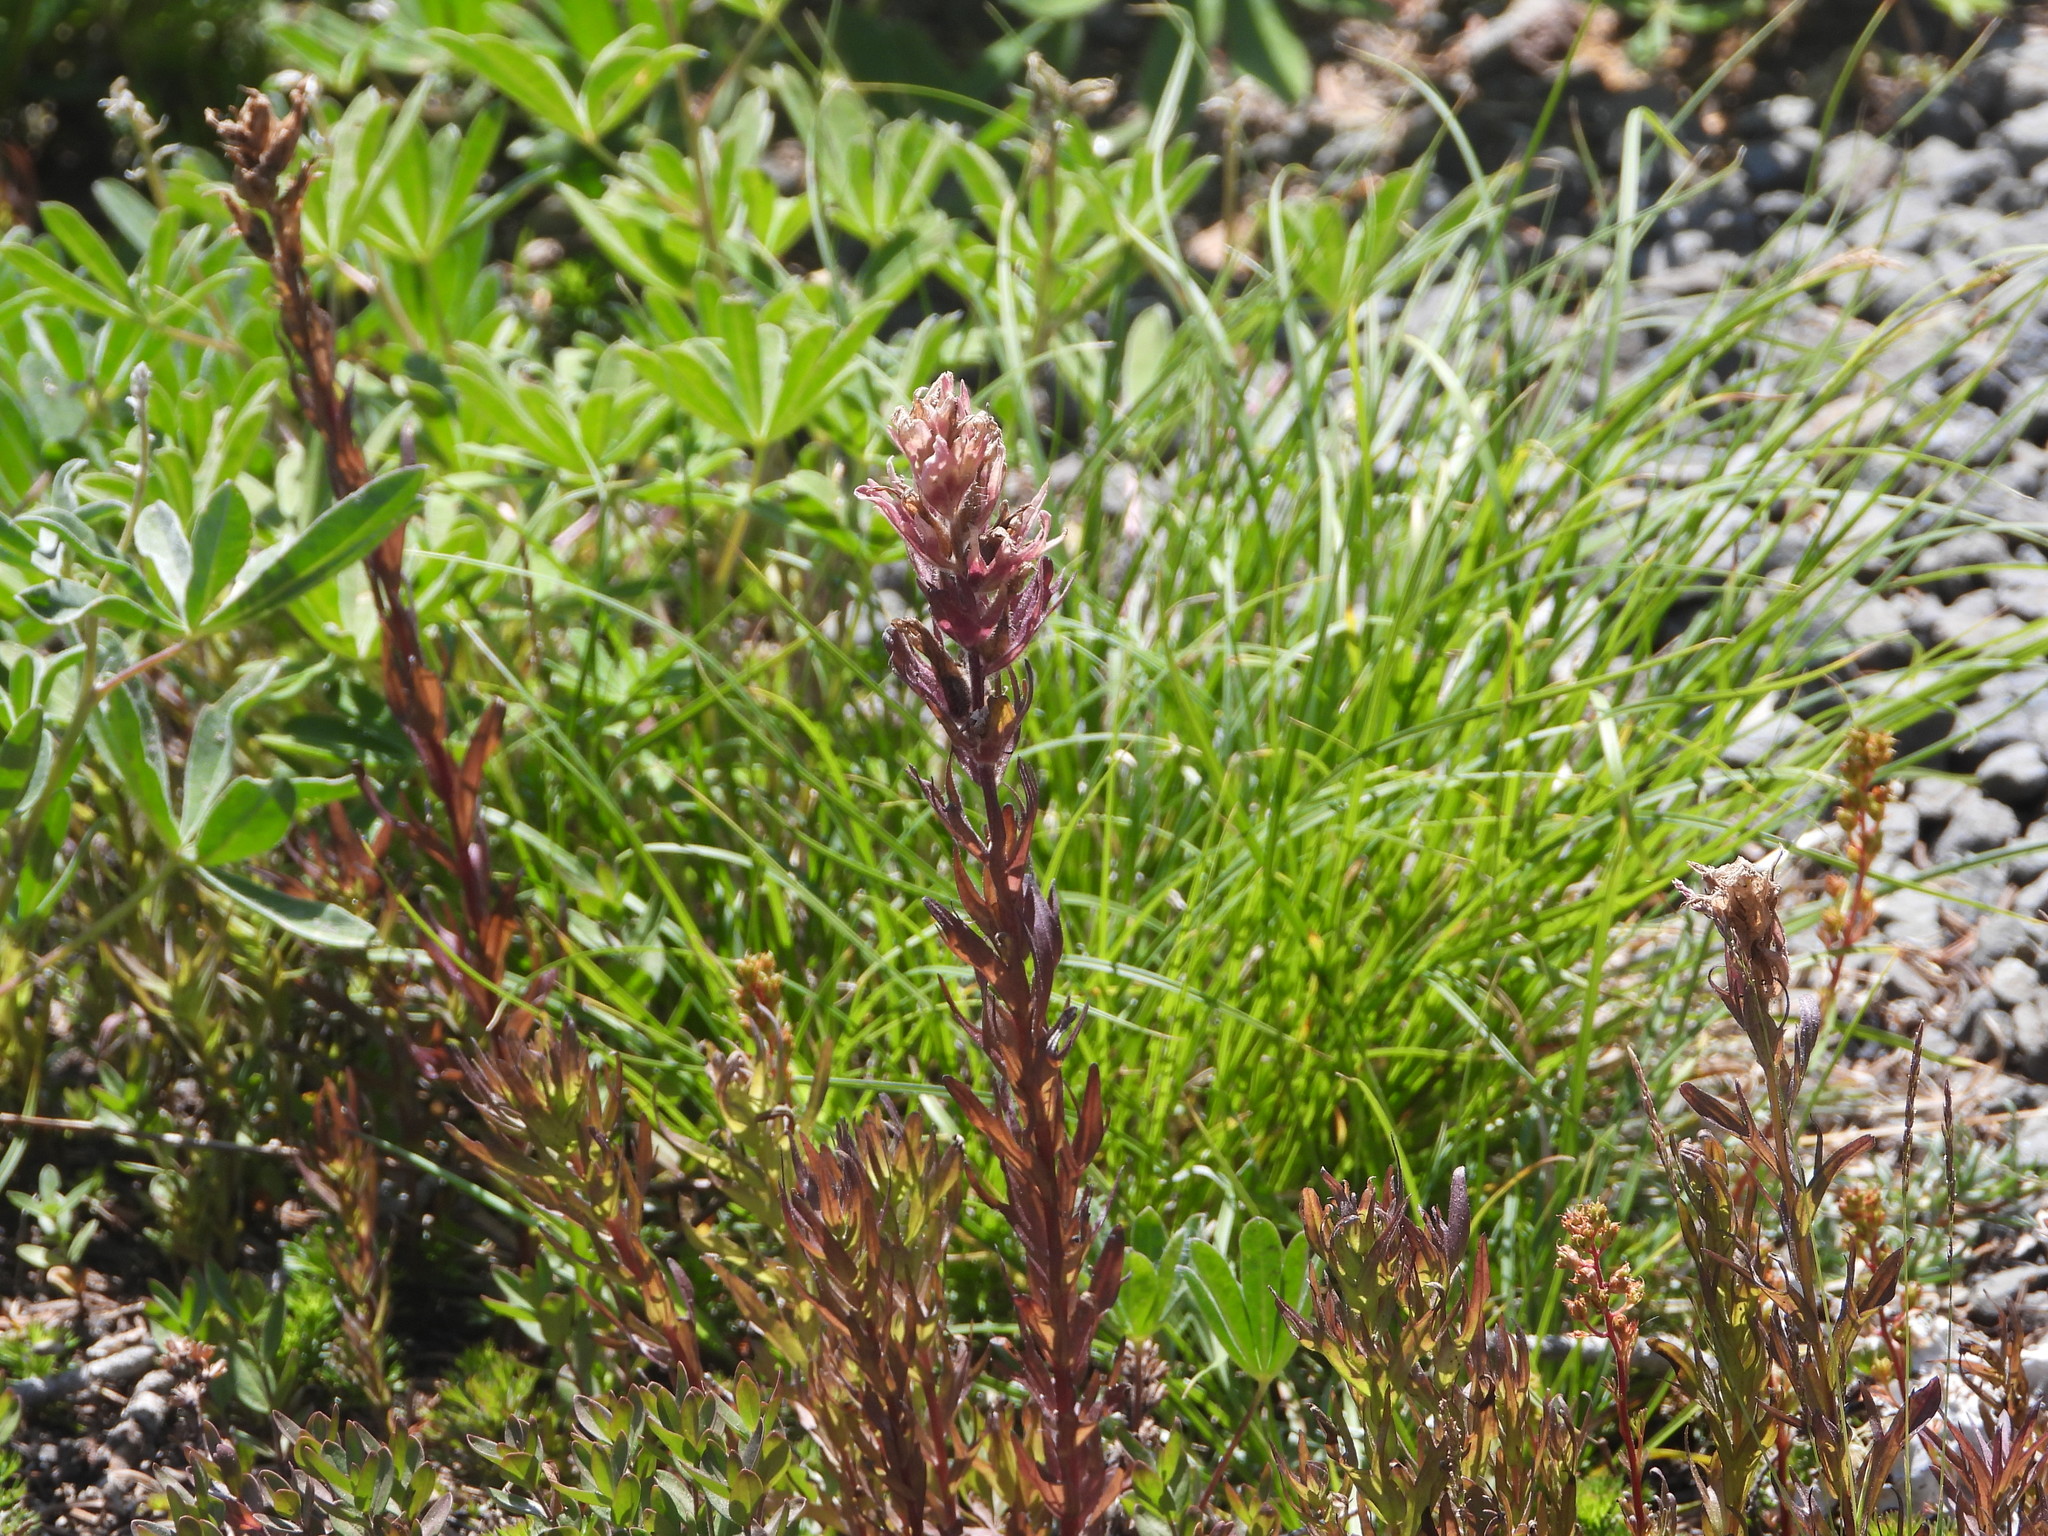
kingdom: Plantae
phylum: Tracheophyta
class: Magnoliopsida
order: Lamiales
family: Orobanchaceae
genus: Castilleja
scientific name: Castilleja parviflora
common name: Mountain paintbrush
